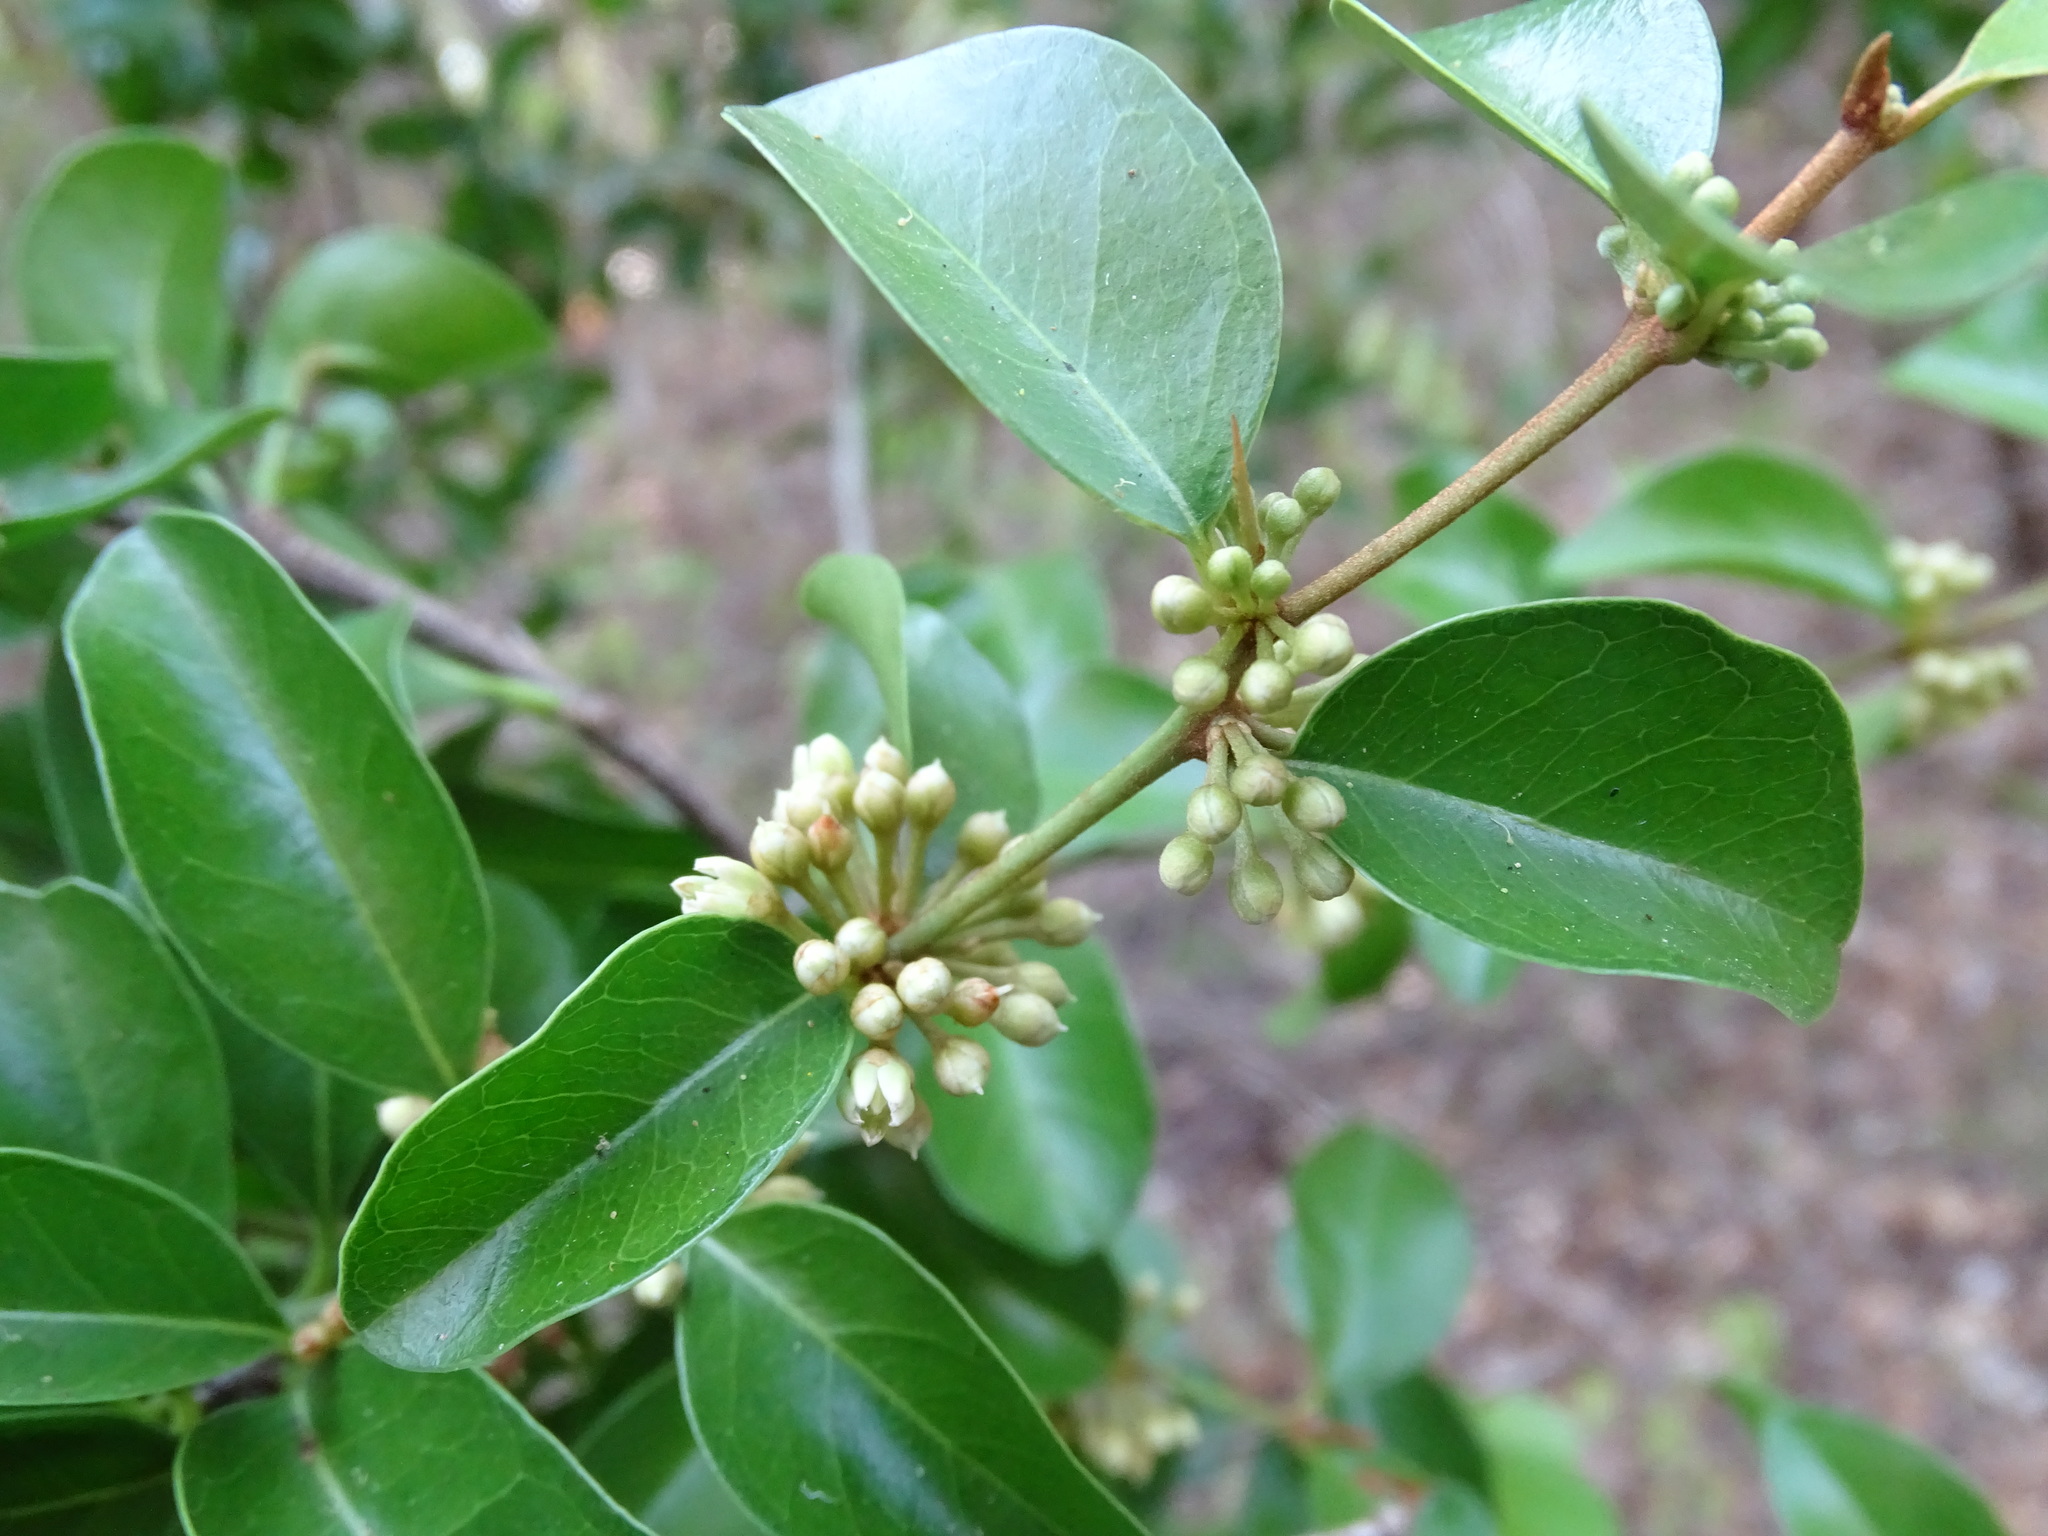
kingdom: Plantae
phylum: Tracheophyta
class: Magnoliopsida
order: Ericales
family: Sapotaceae
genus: Sideroxylon
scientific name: Sideroxylon obtusifolium
